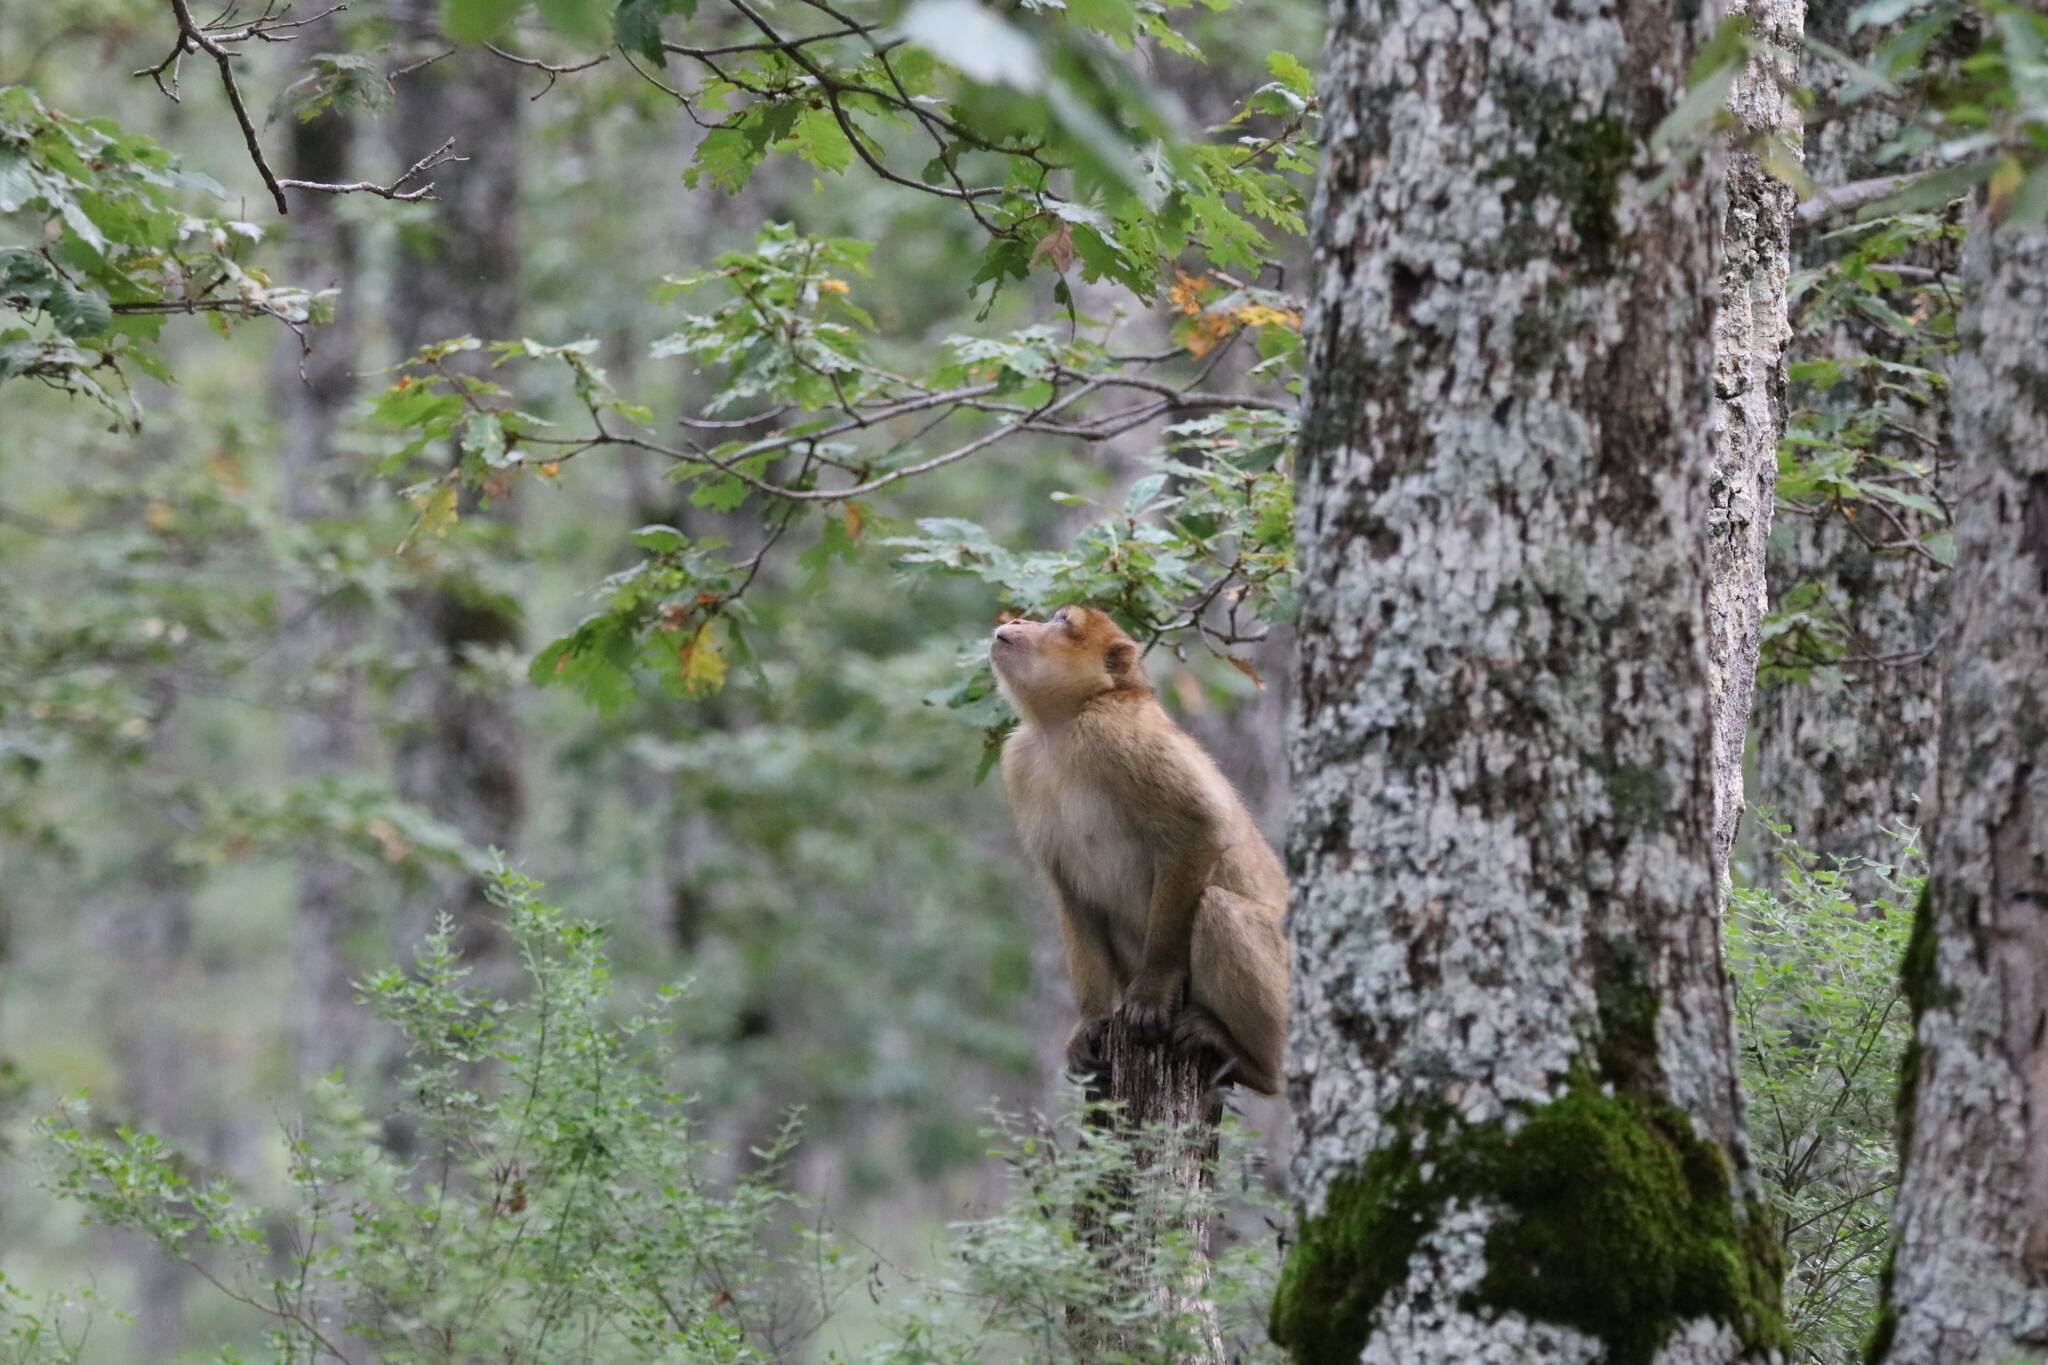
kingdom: Animalia
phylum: Chordata
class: Mammalia
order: Primates
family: Cercopithecidae
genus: Macaca
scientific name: Macaca sylvanus
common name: Barbary macaque
